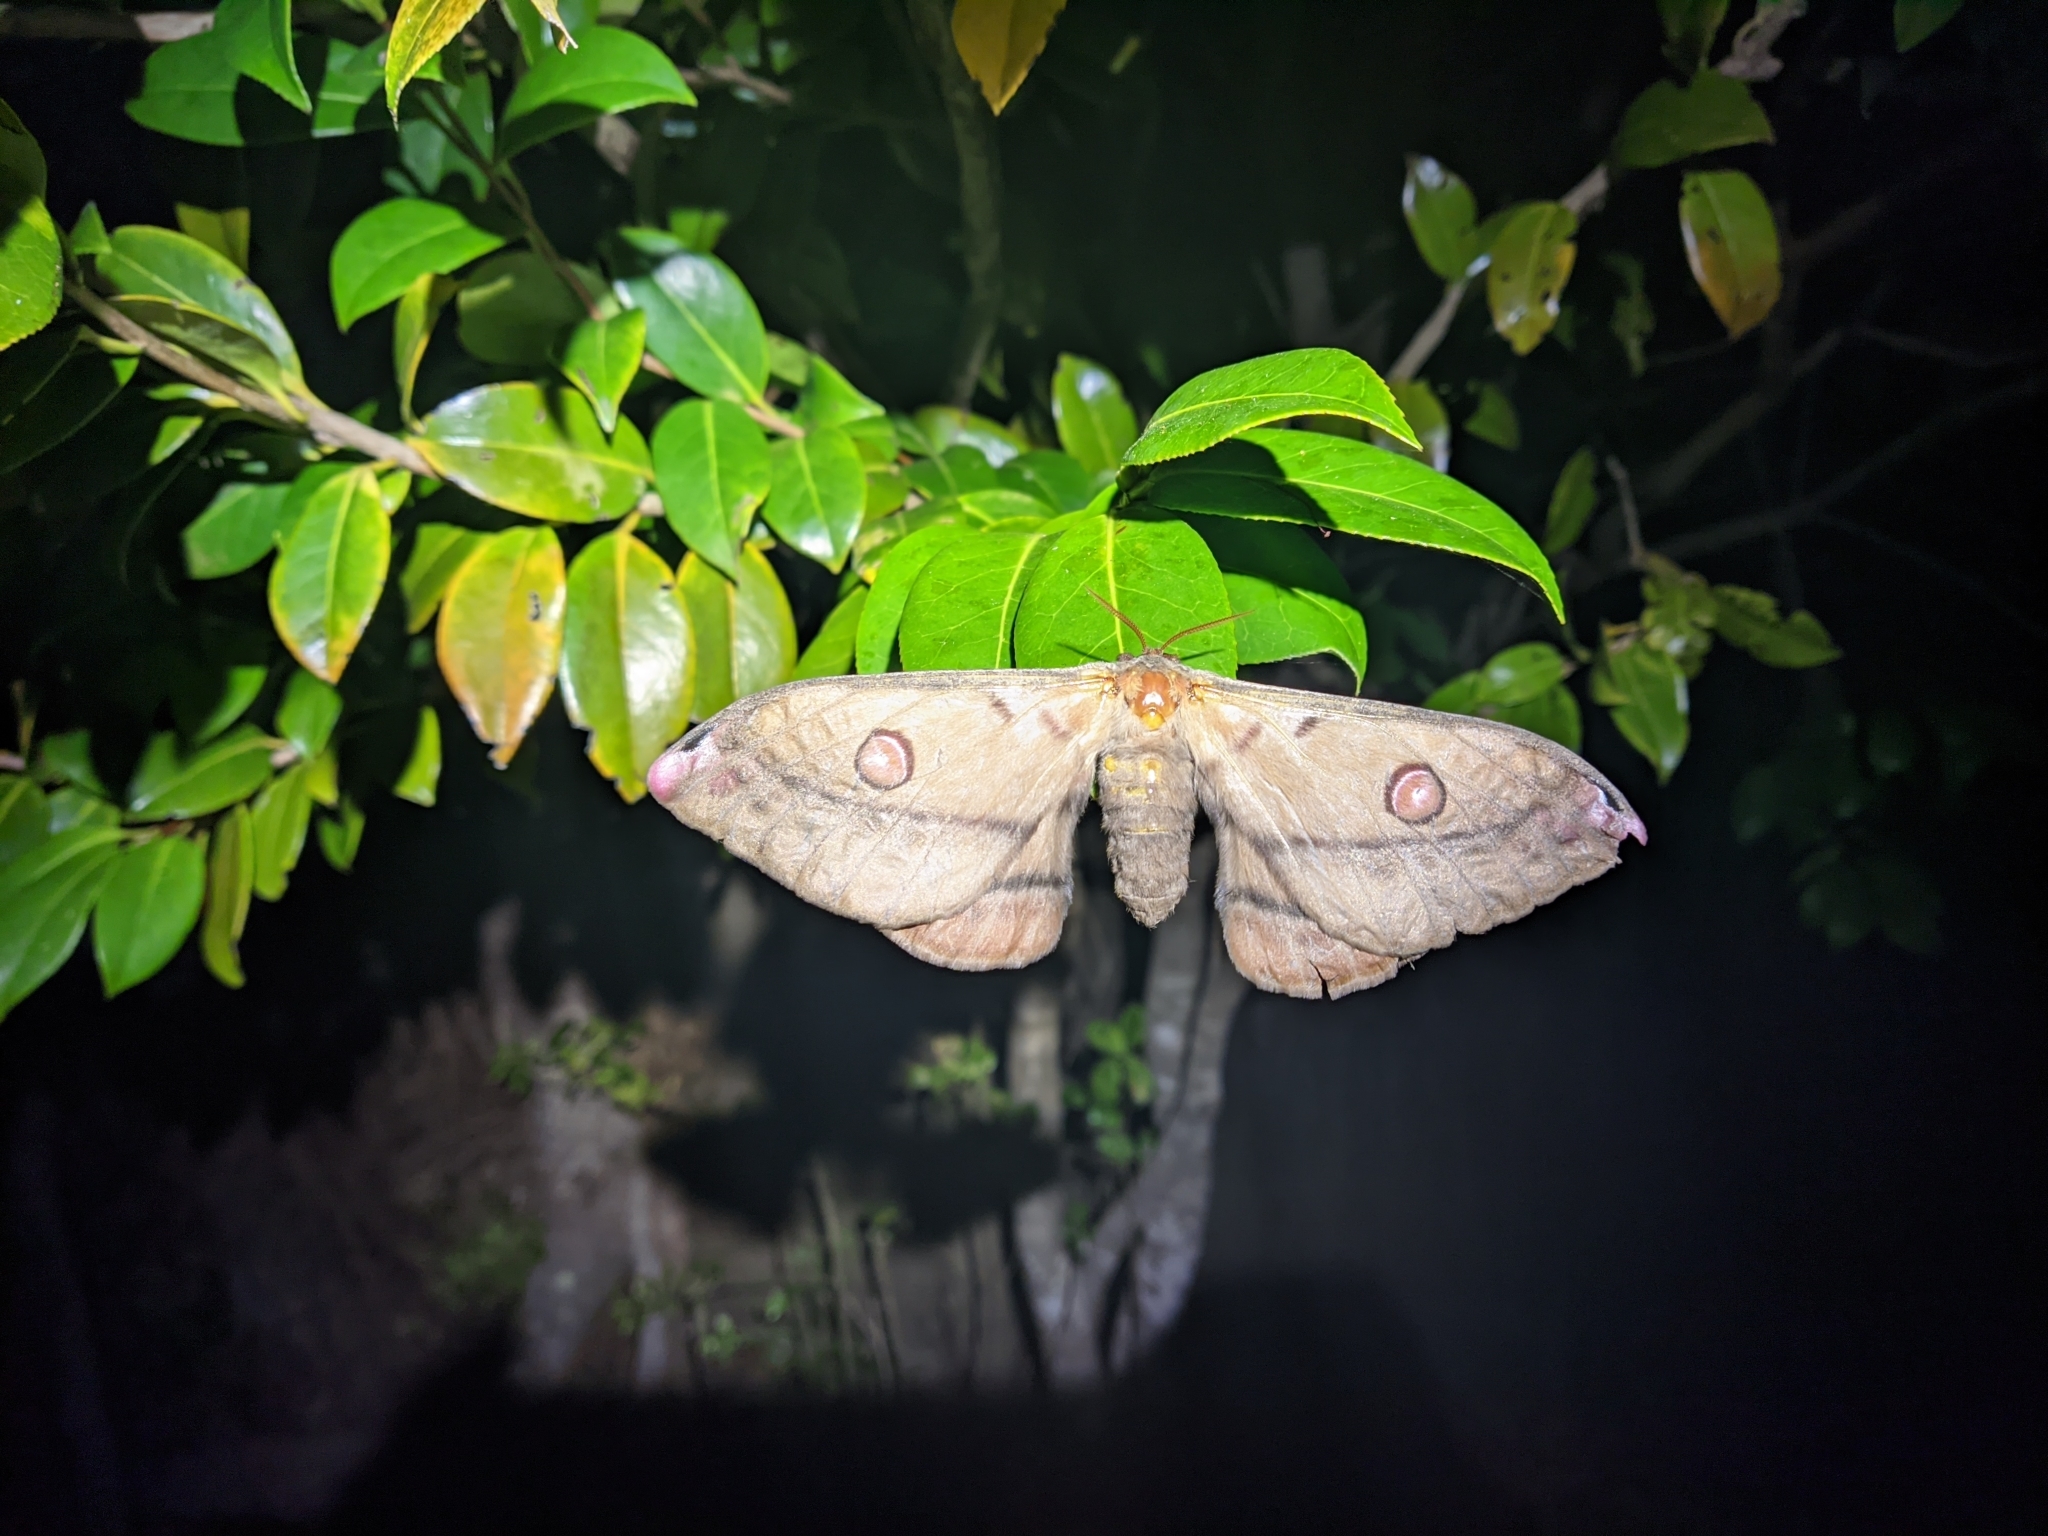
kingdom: Animalia
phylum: Arthropoda
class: Insecta
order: Lepidoptera
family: Saturniidae
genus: Opodiphthera
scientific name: Opodiphthera
